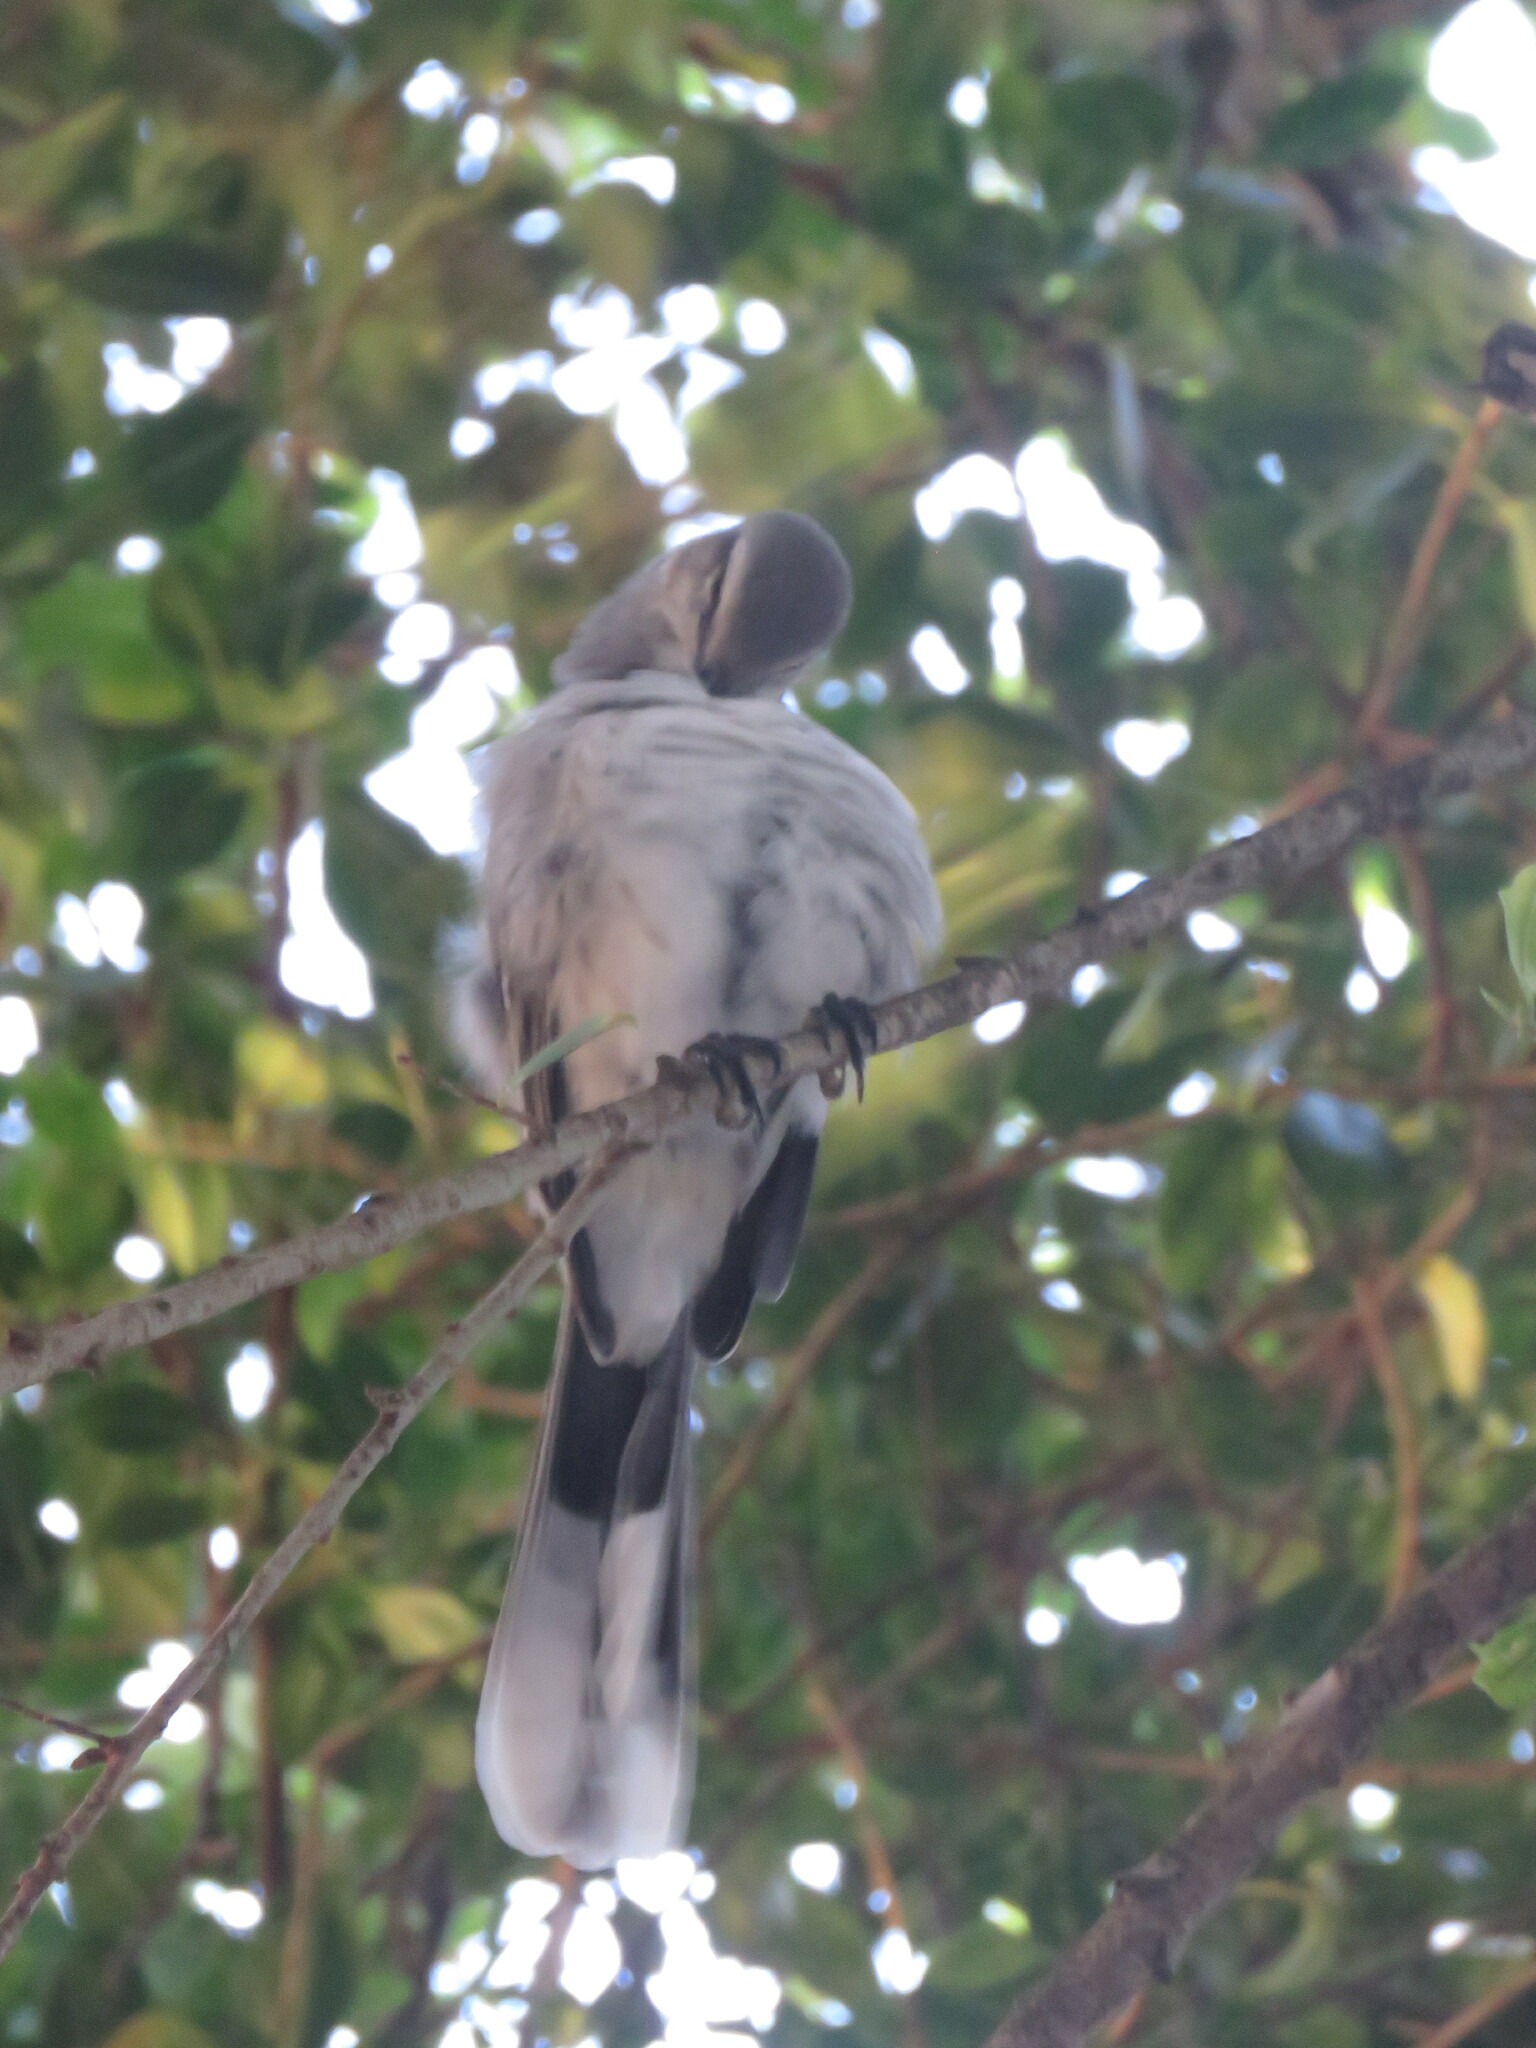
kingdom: Animalia
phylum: Chordata
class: Aves
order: Passeriformes
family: Mimidae
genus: Mimus
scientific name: Mimus gilvus
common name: Tropical mockingbird
